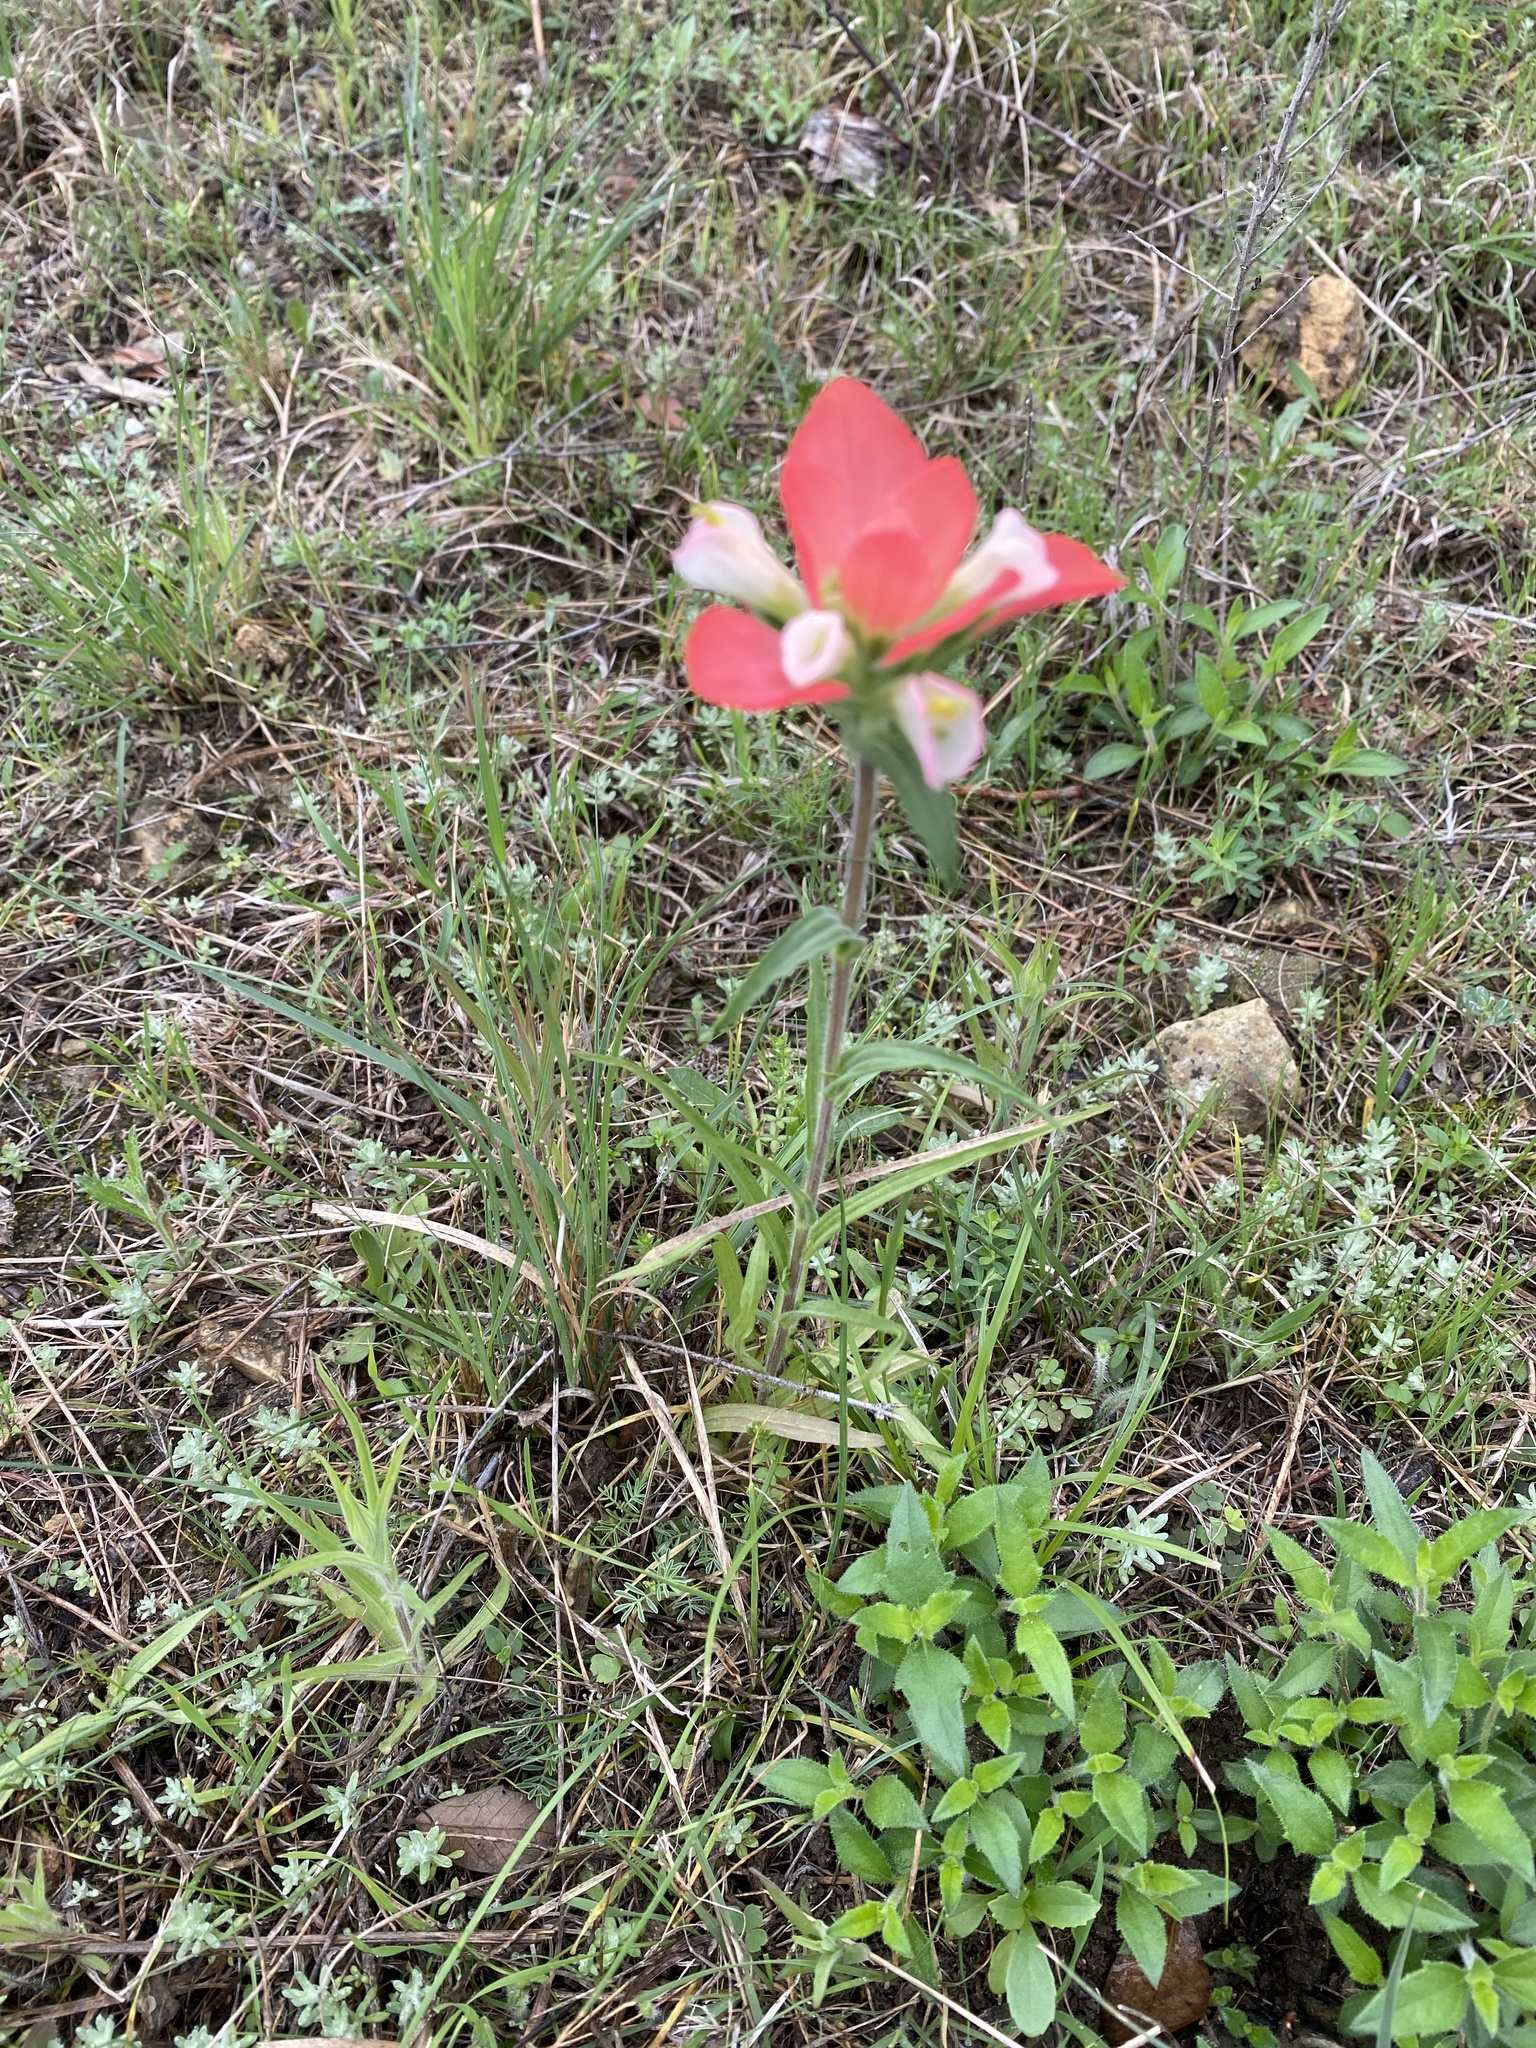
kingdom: Plantae
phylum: Tracheophyta
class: Magnoliopsida
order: Lamiales
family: Orobanchaceae
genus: Castilleja
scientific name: Castilleja indivisa
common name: Texas paintbrush
